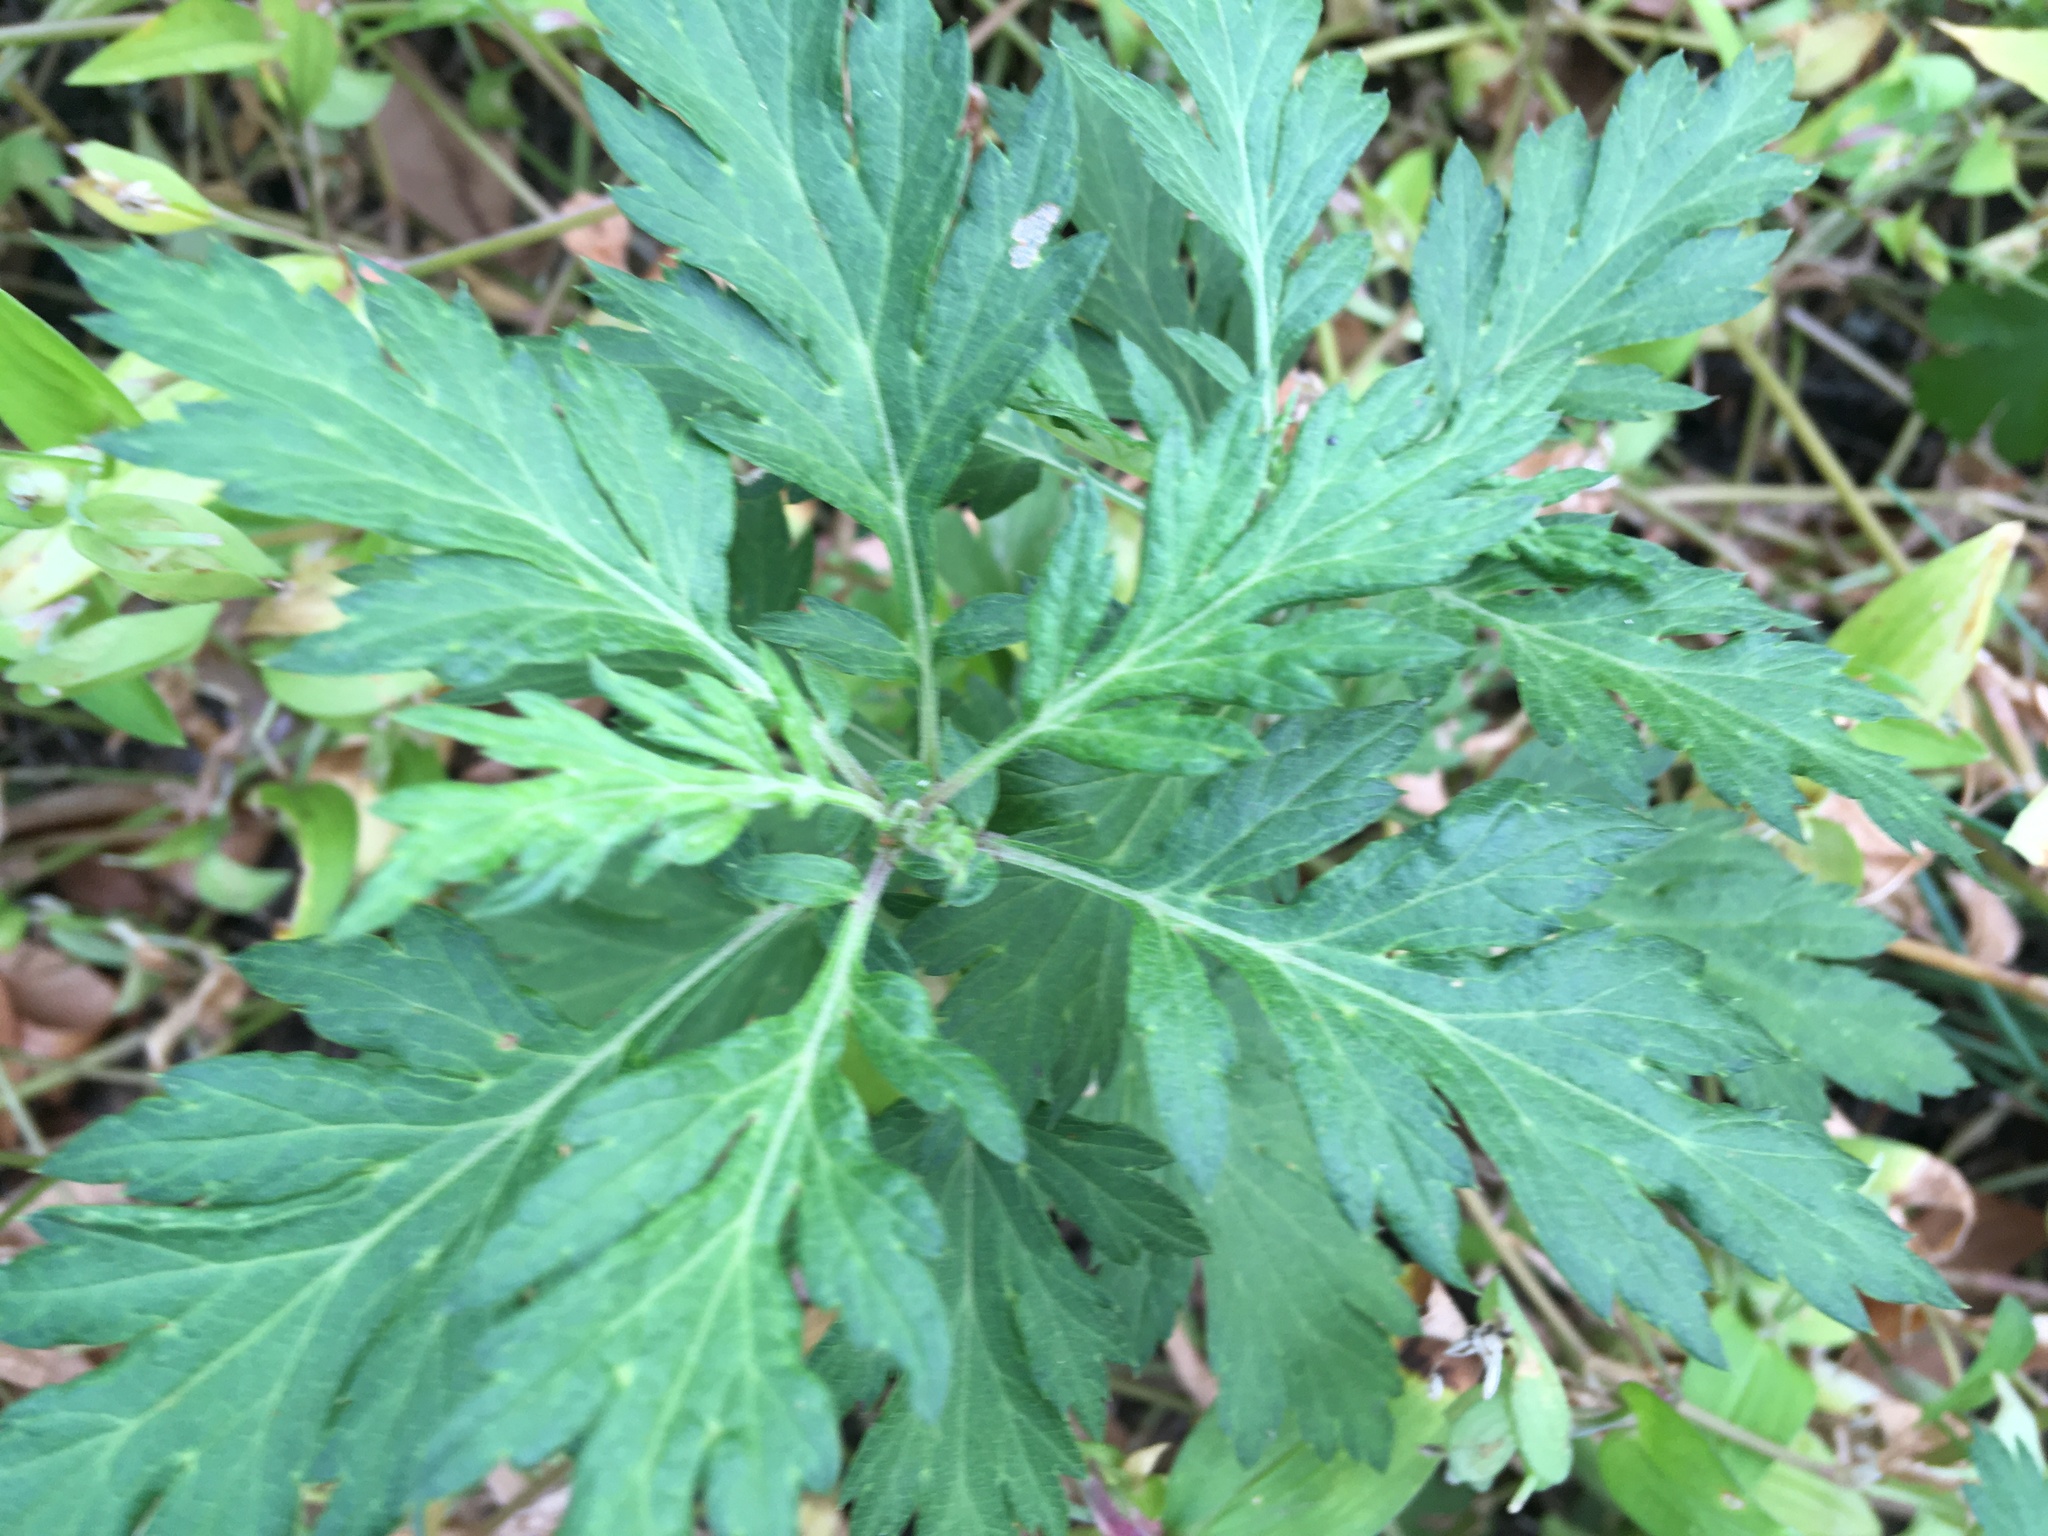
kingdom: Plantae
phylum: Tracheophyta
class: Magnoliopsida
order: Asterales
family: Asteraceae
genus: Artemisia
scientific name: Artemisia vulgaris
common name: Mugwort
